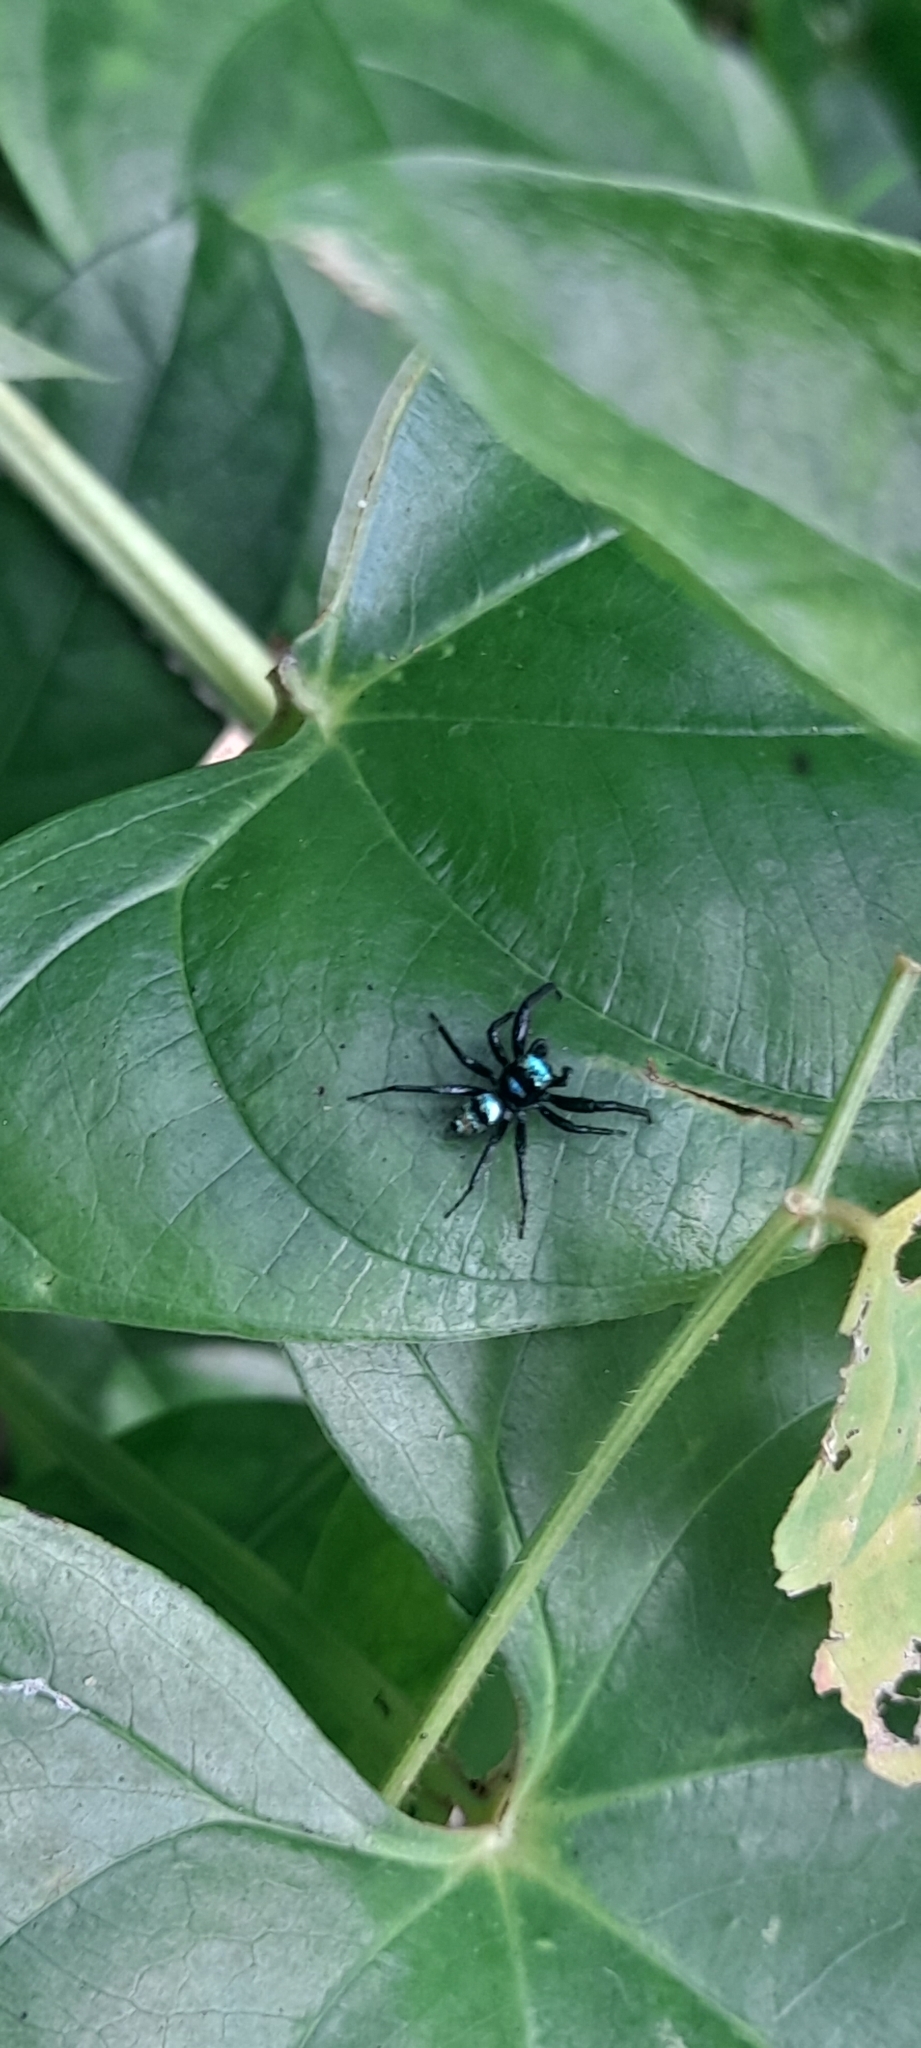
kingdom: Animalia
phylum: Arthropoda
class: Arachnida
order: Araneae
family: Salticidae
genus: Phintella
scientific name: Phintella vittata
